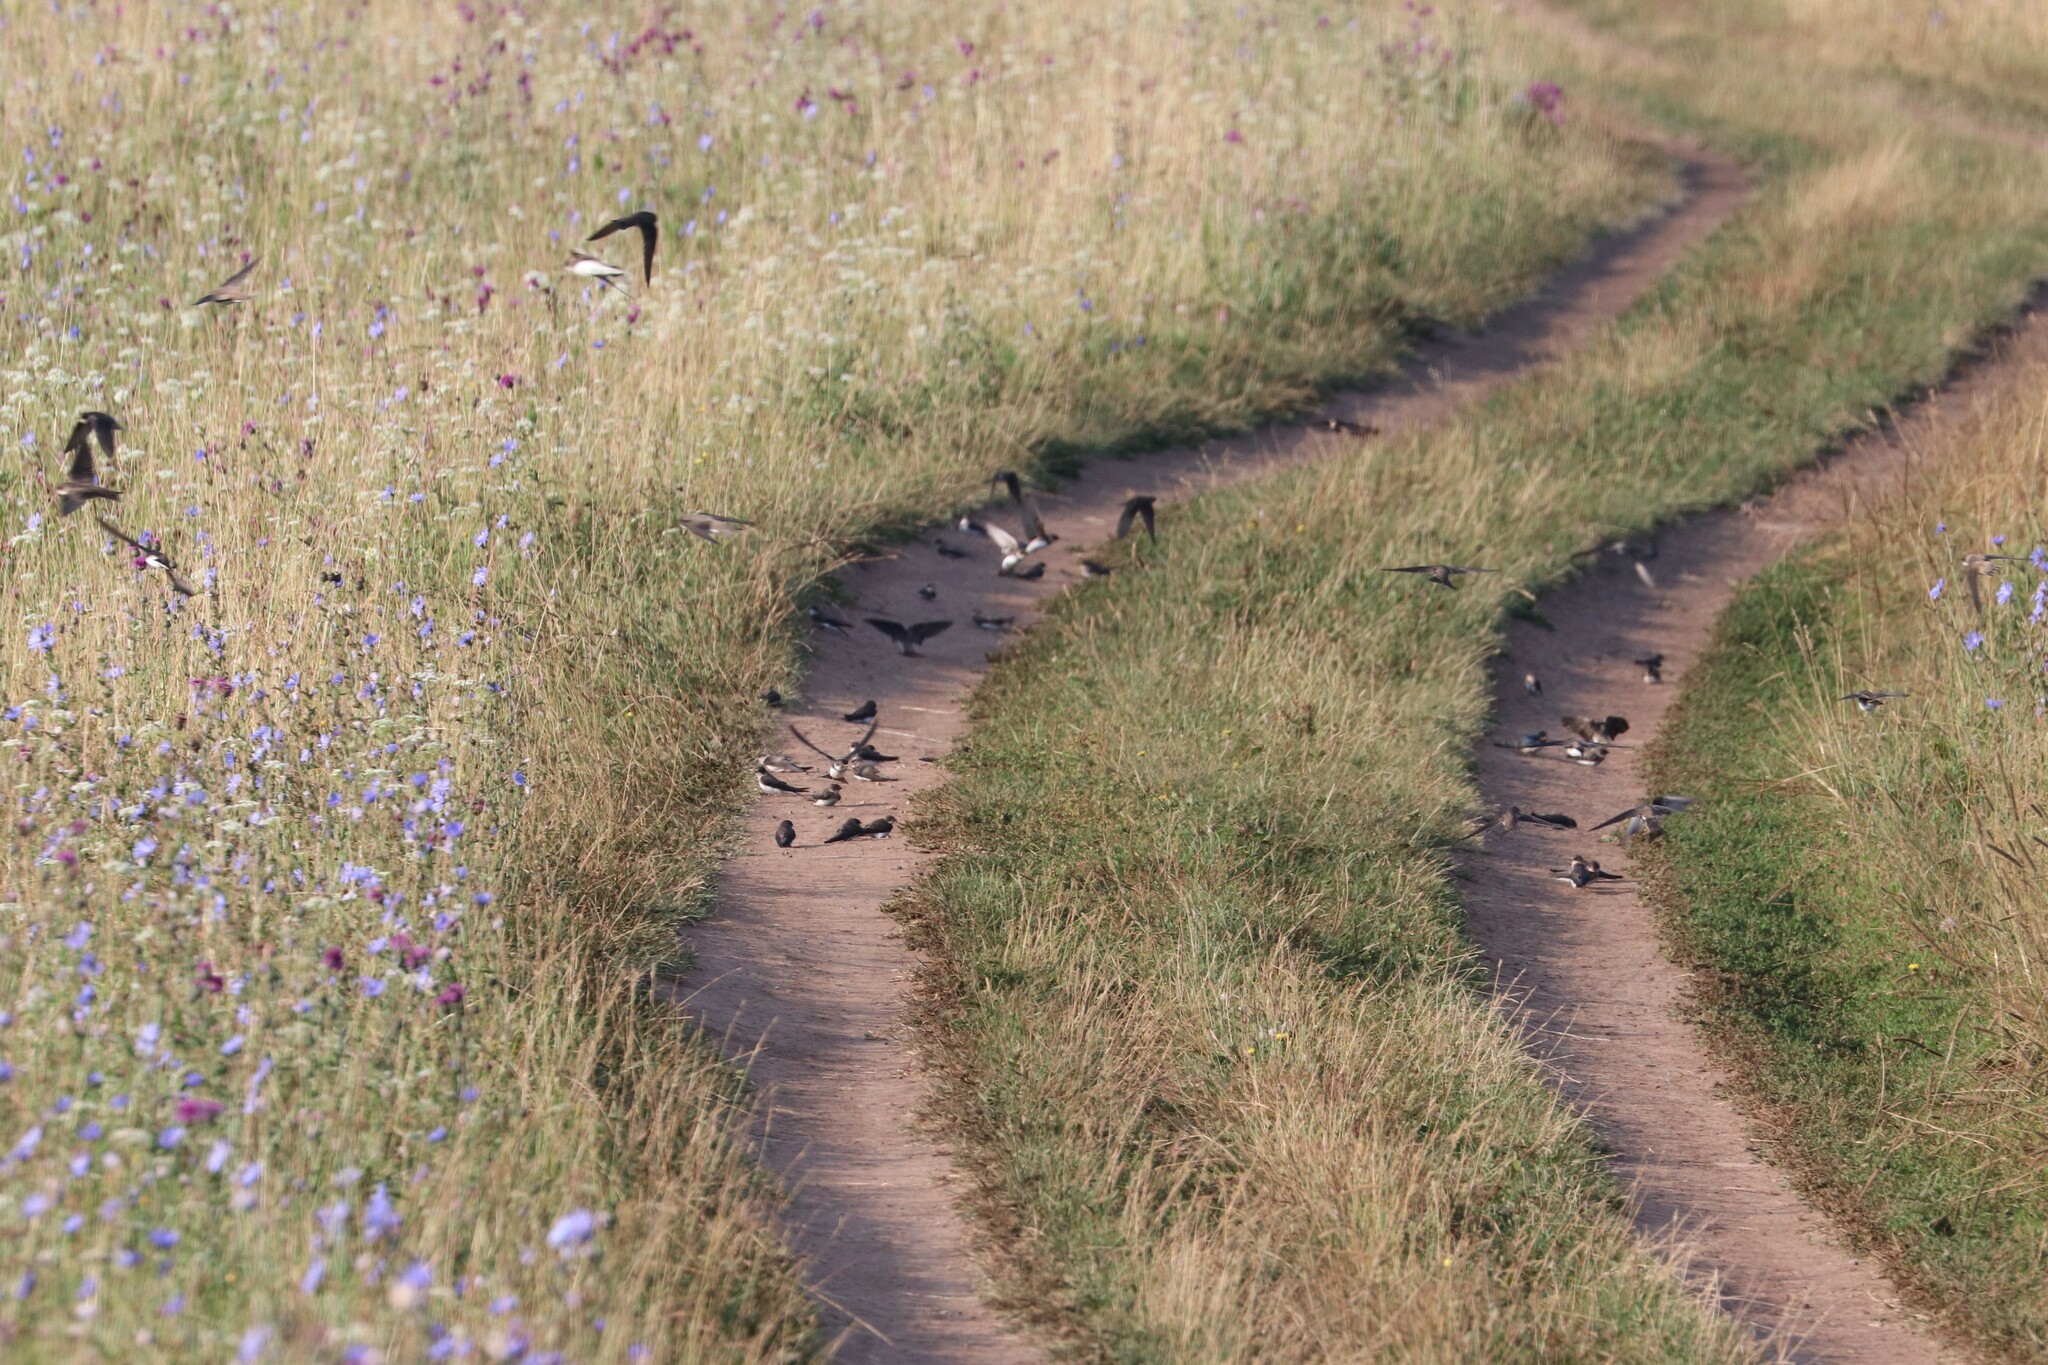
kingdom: Animalia
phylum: Chordata
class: Aves
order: Passeriformes
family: Hirundinidae
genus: Riparia
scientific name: Riparia riparia
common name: Sand martin
